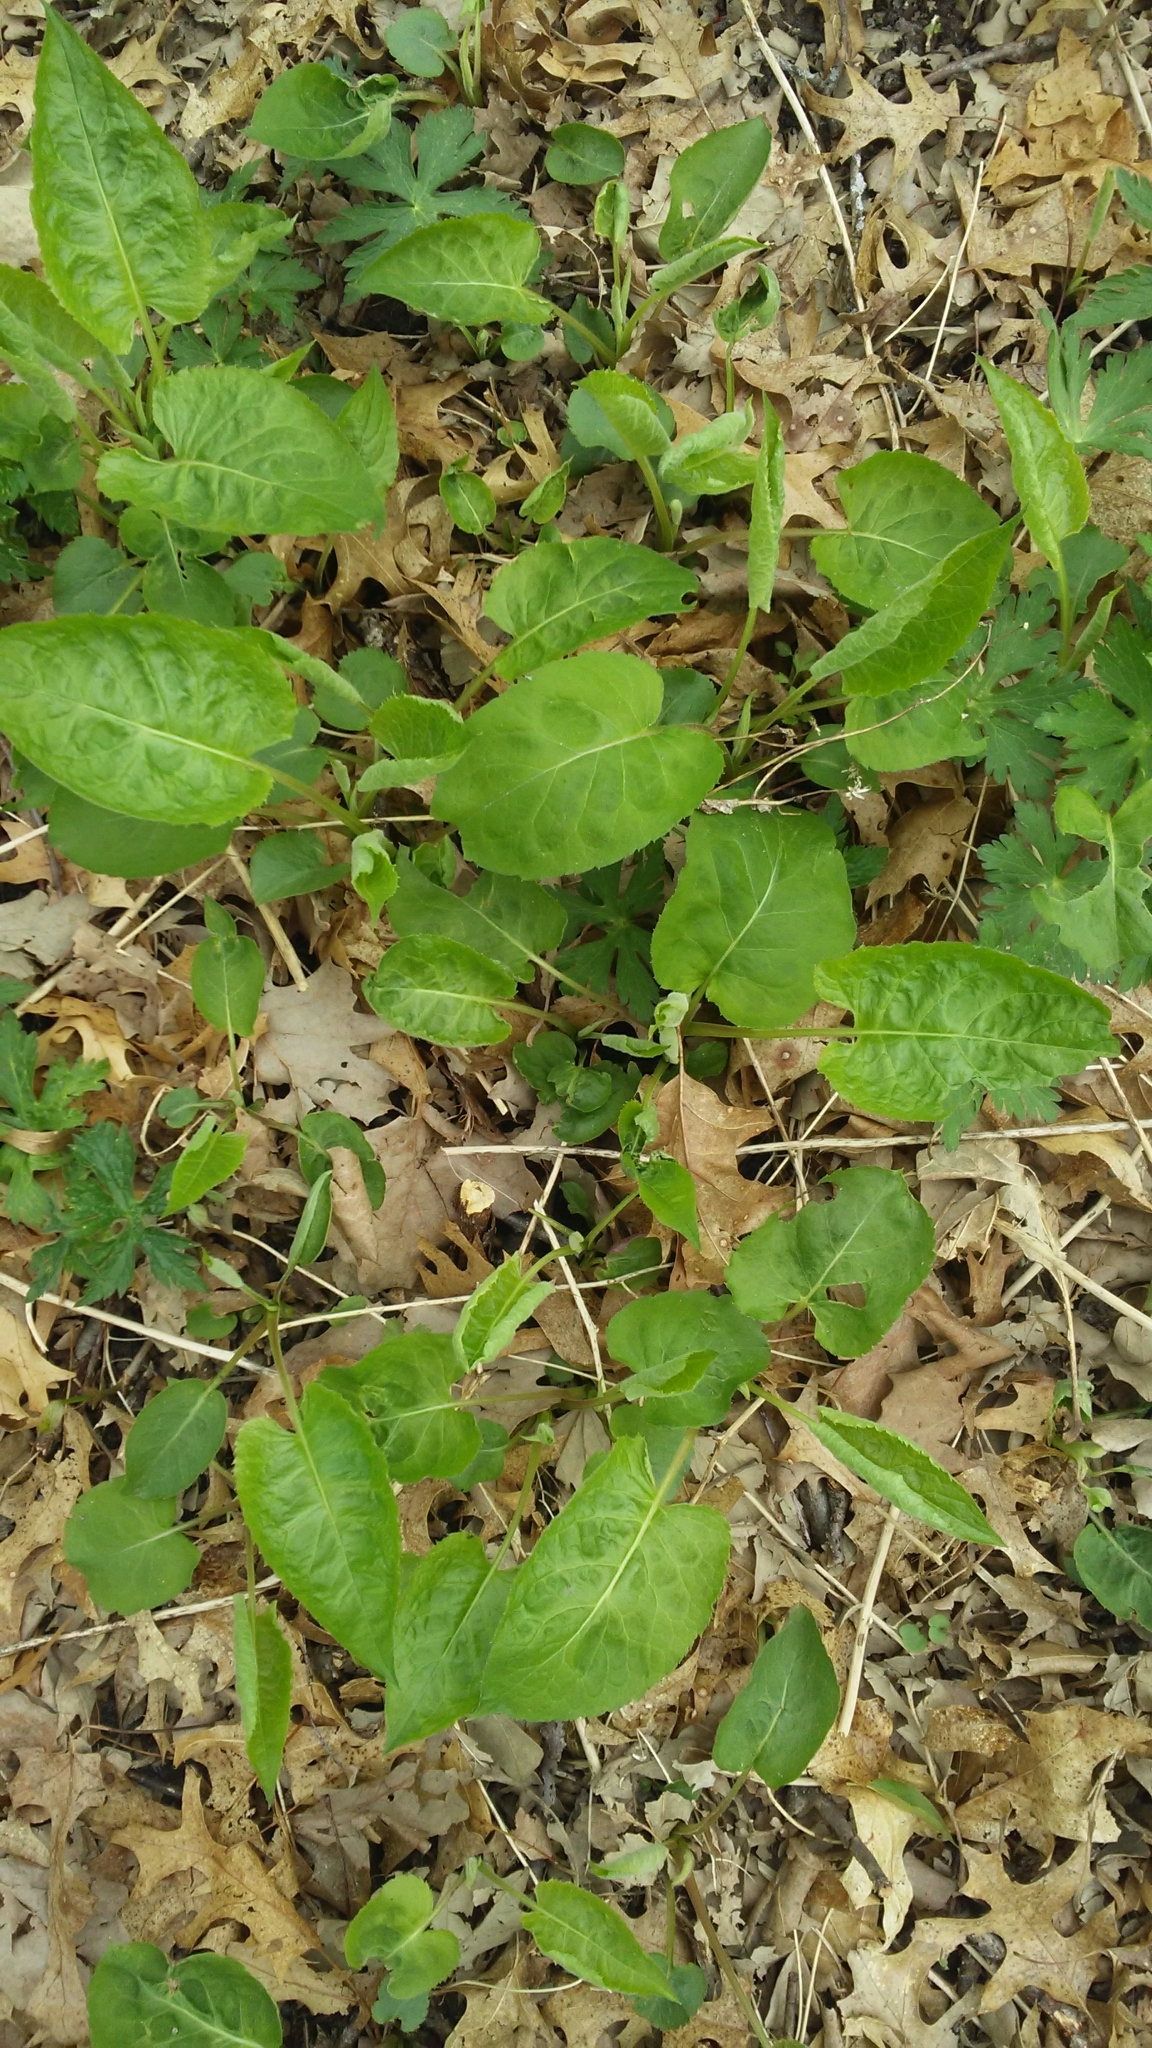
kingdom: Plantae
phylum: Tracheophyta
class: Magnoliopsida
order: Asterales
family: Asteraceae
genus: Eurybia
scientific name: Eurybia macrophylla
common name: Big-leaved aster
